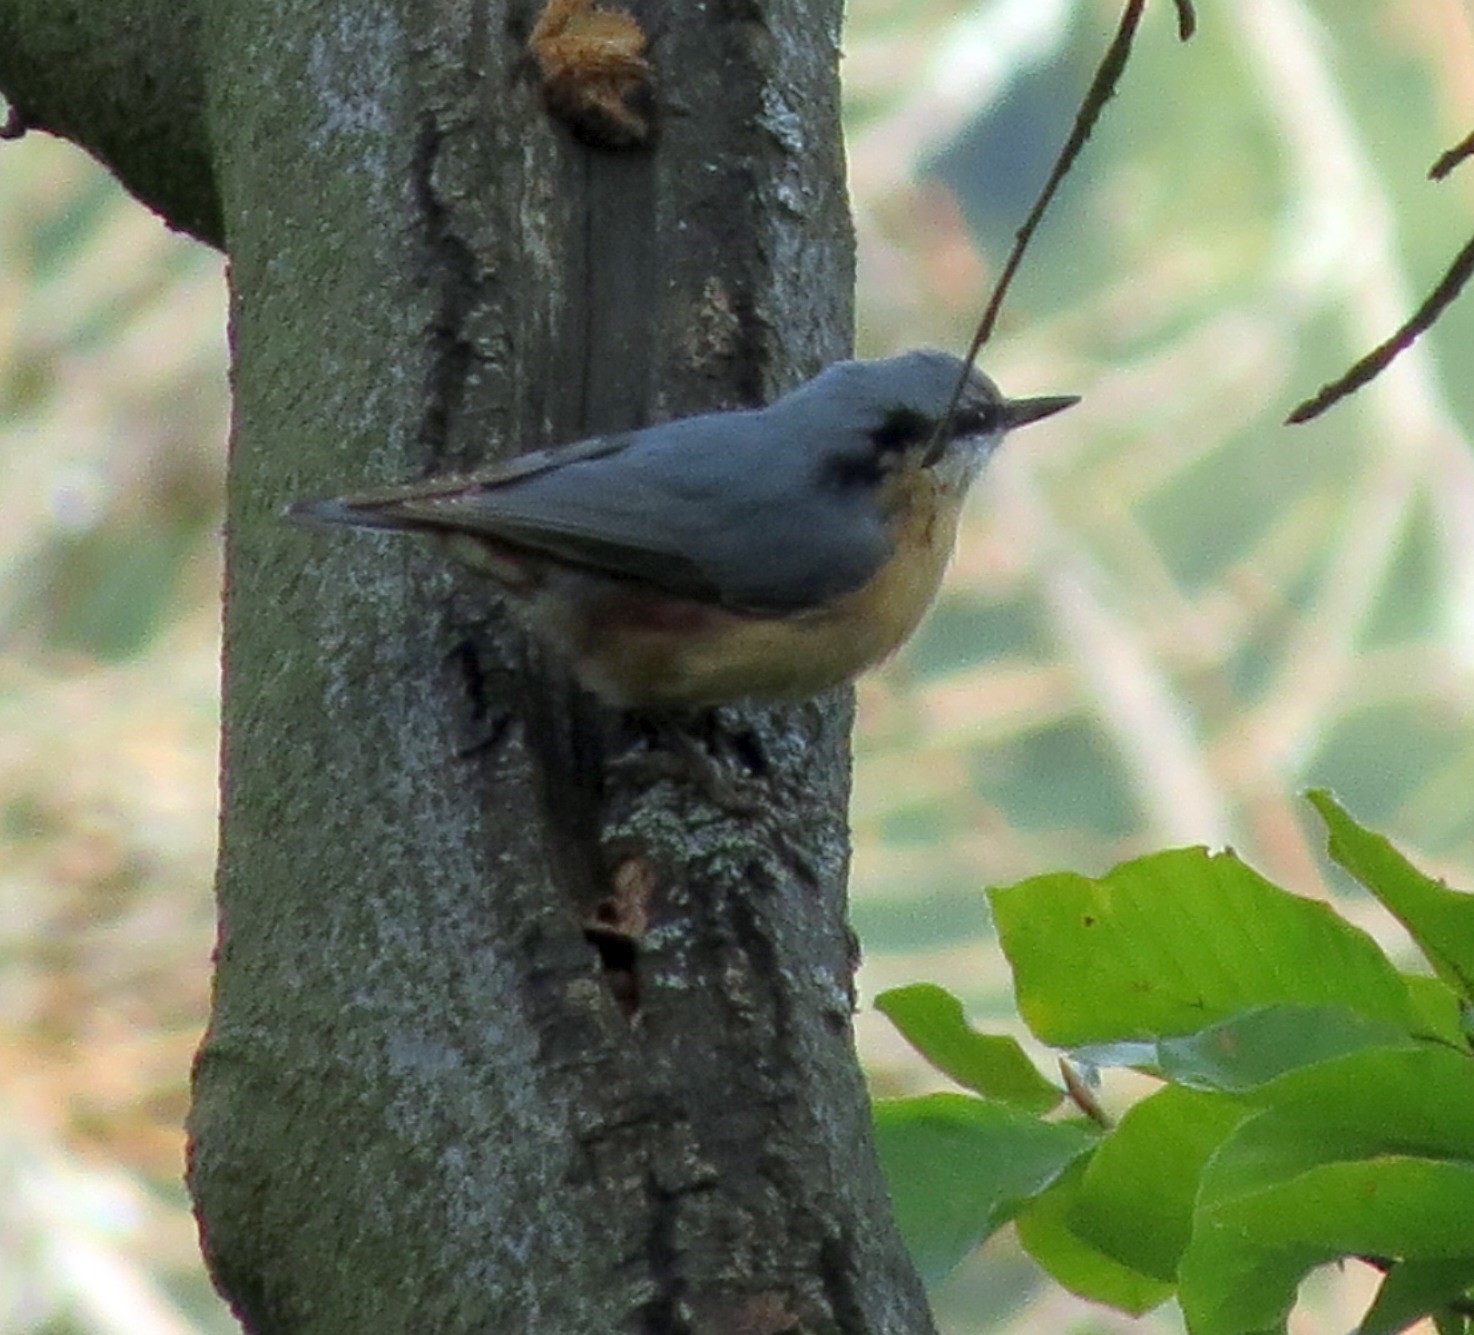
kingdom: Animalia
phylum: Chordata
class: Aves
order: Passeriformes
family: Sittidae
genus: Sitta
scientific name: Sitta europaea
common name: Eurasian nuthatch
